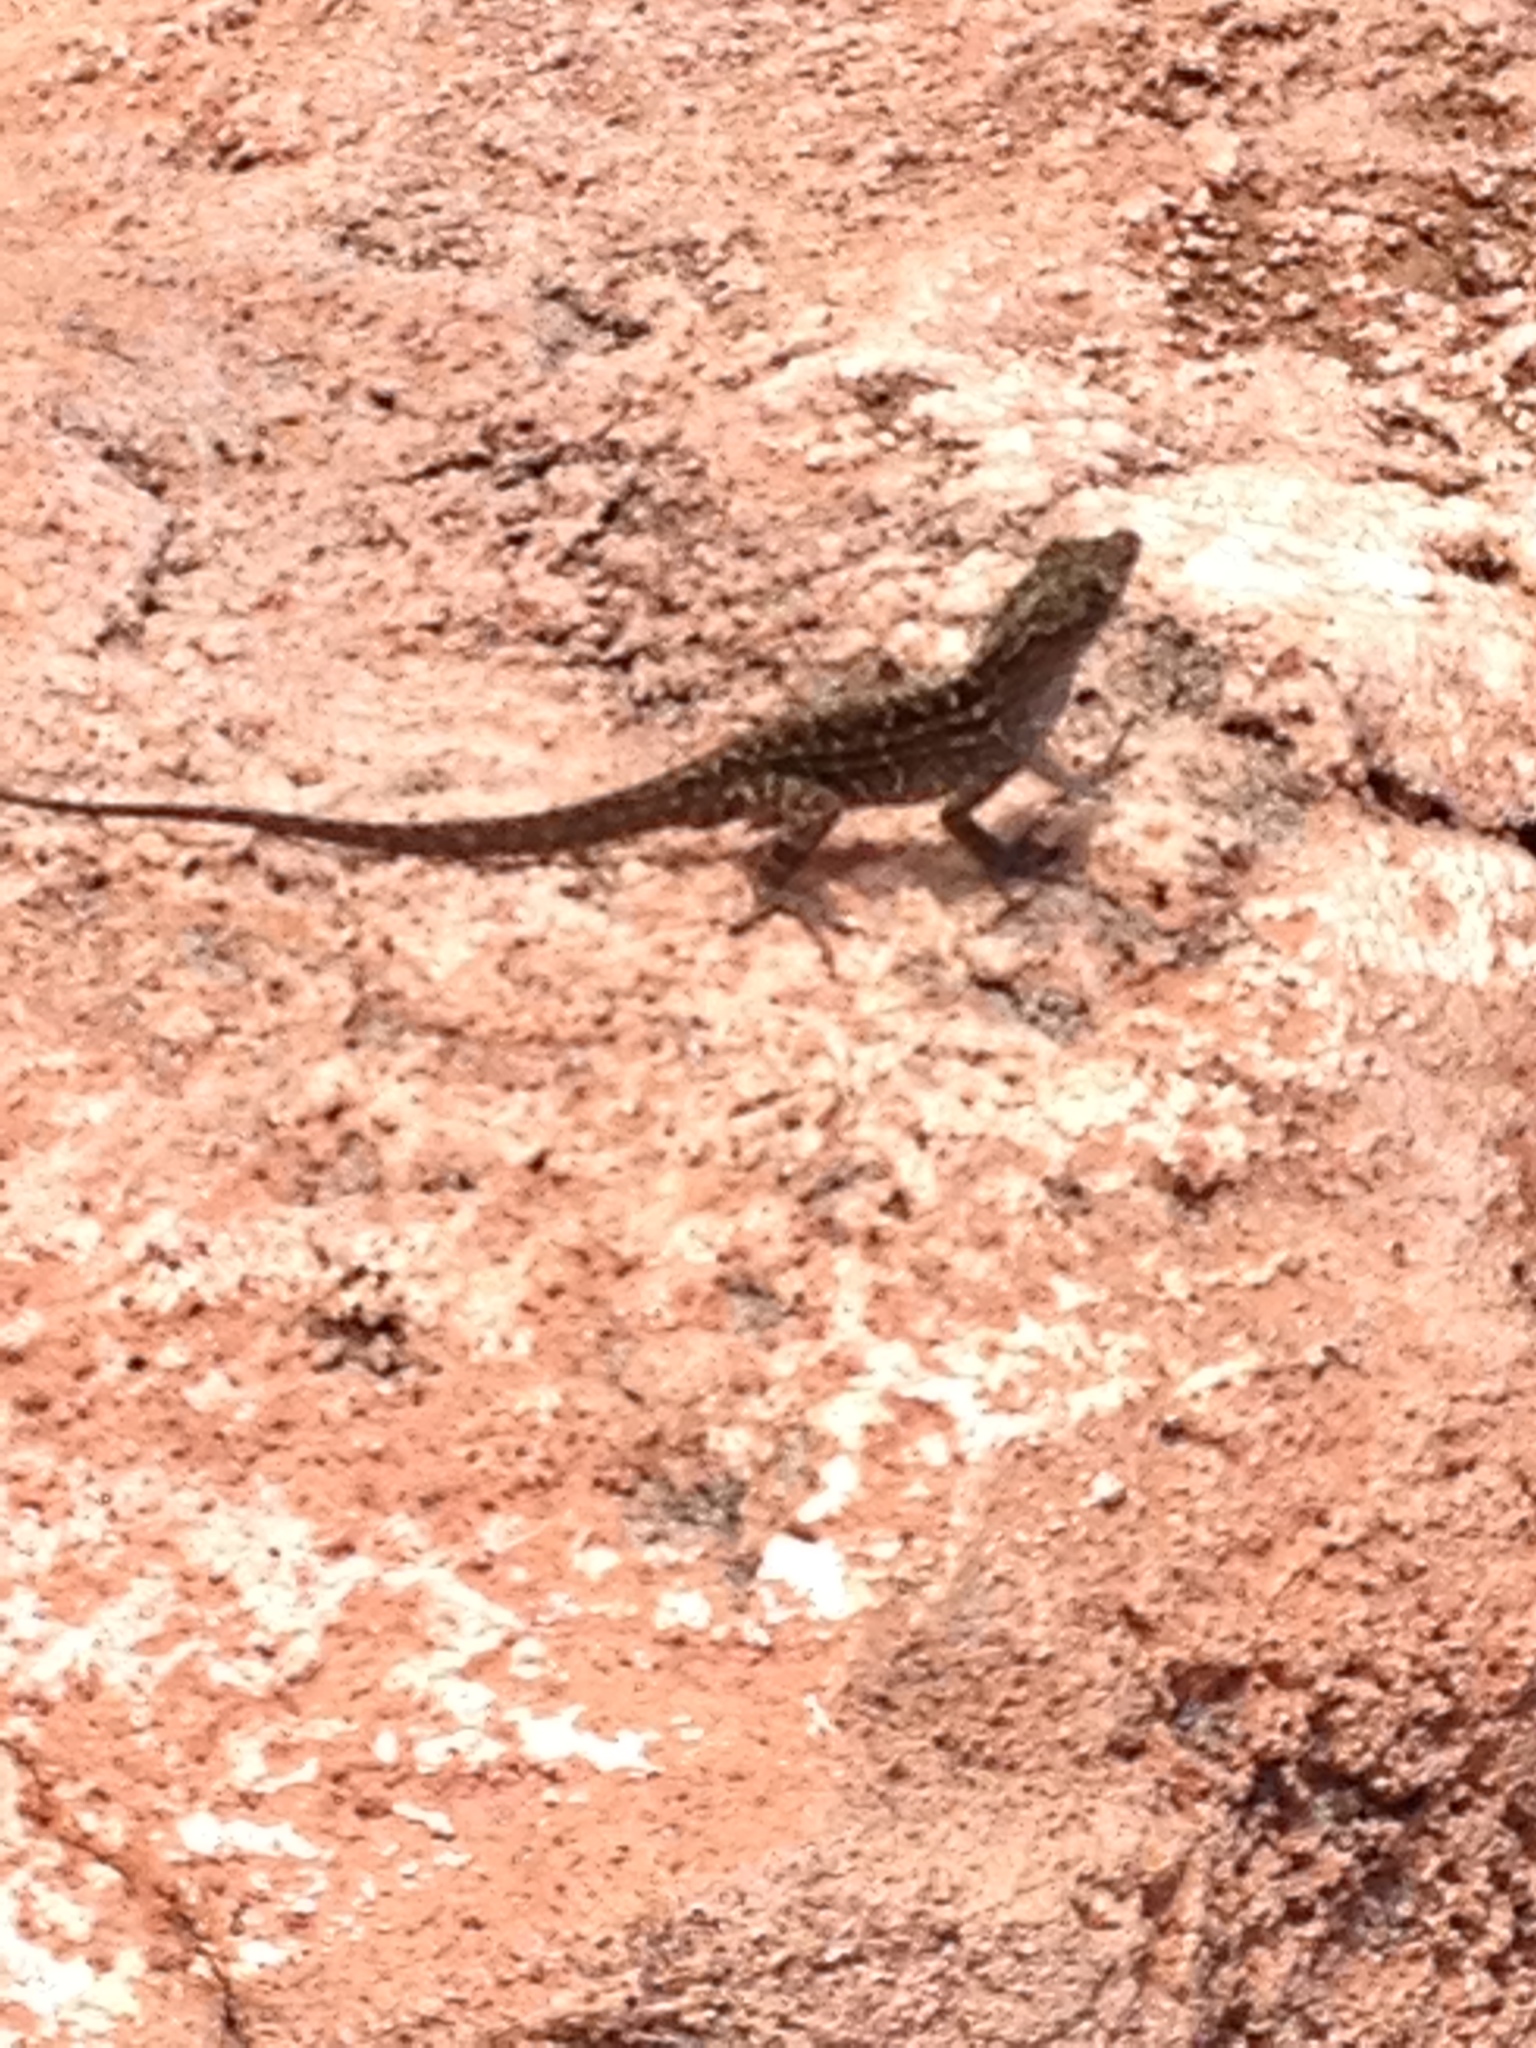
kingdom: Animalia
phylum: Chordata
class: Squamata
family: Dactyloidae
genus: Anolis
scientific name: Anolis sagrei
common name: Brown anole
